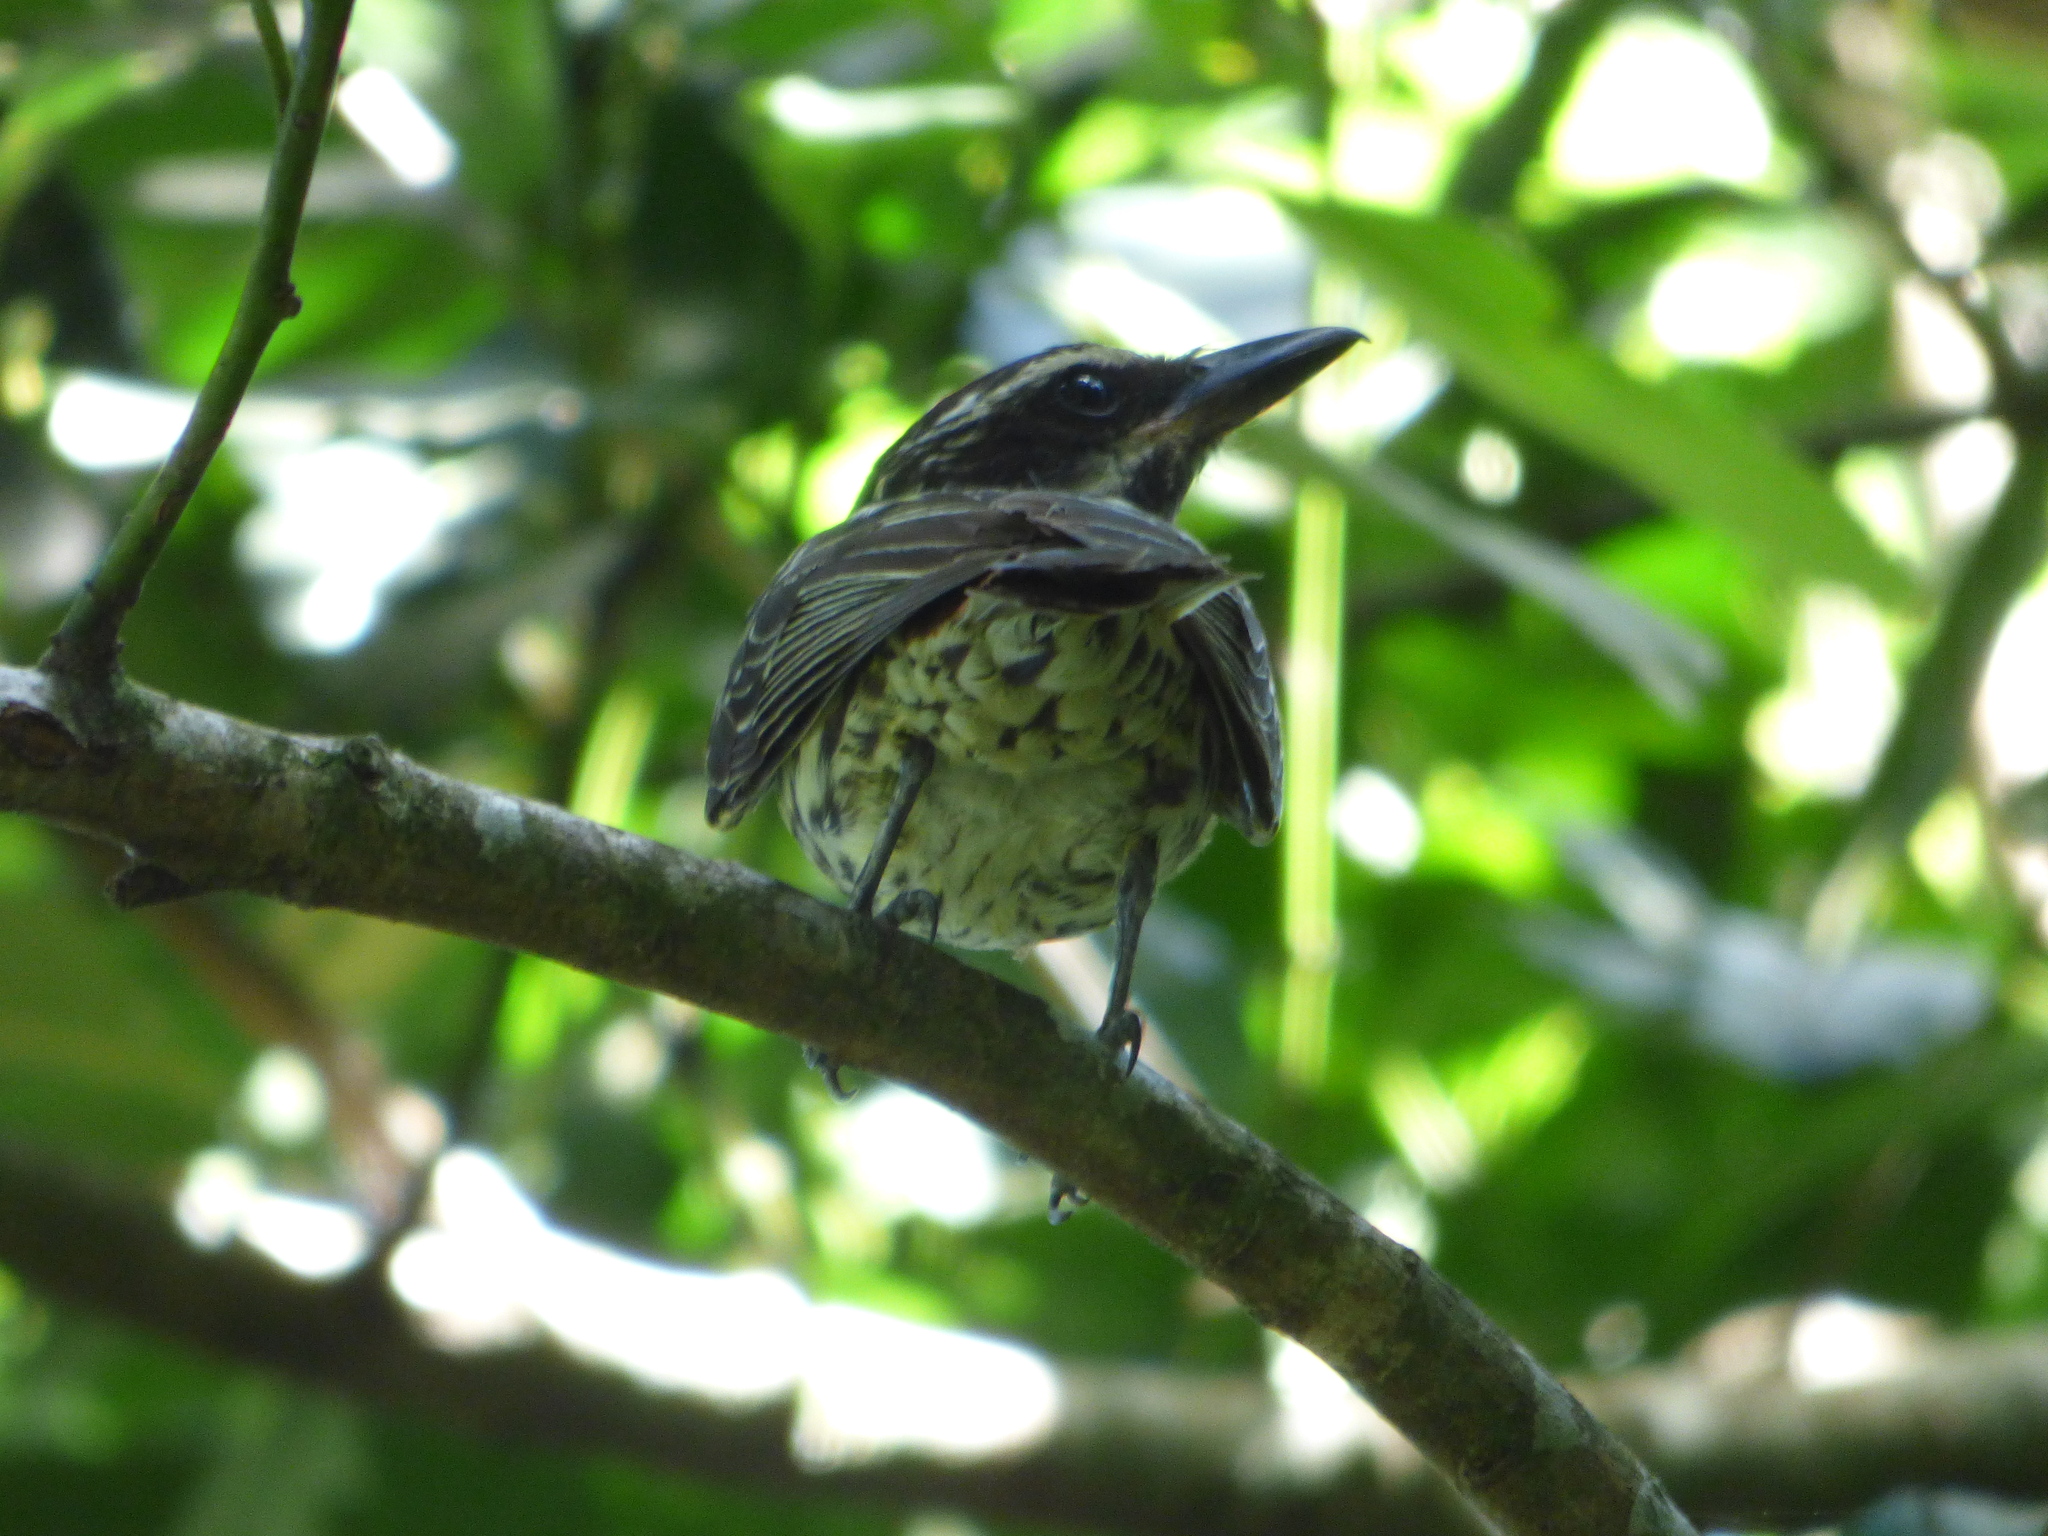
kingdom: Animalia
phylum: Chordata
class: Aves
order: Passeriformes
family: Tyrannidae
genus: Myiodynastes
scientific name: Myiodynastes maculatus
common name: Streaked flycatcher
